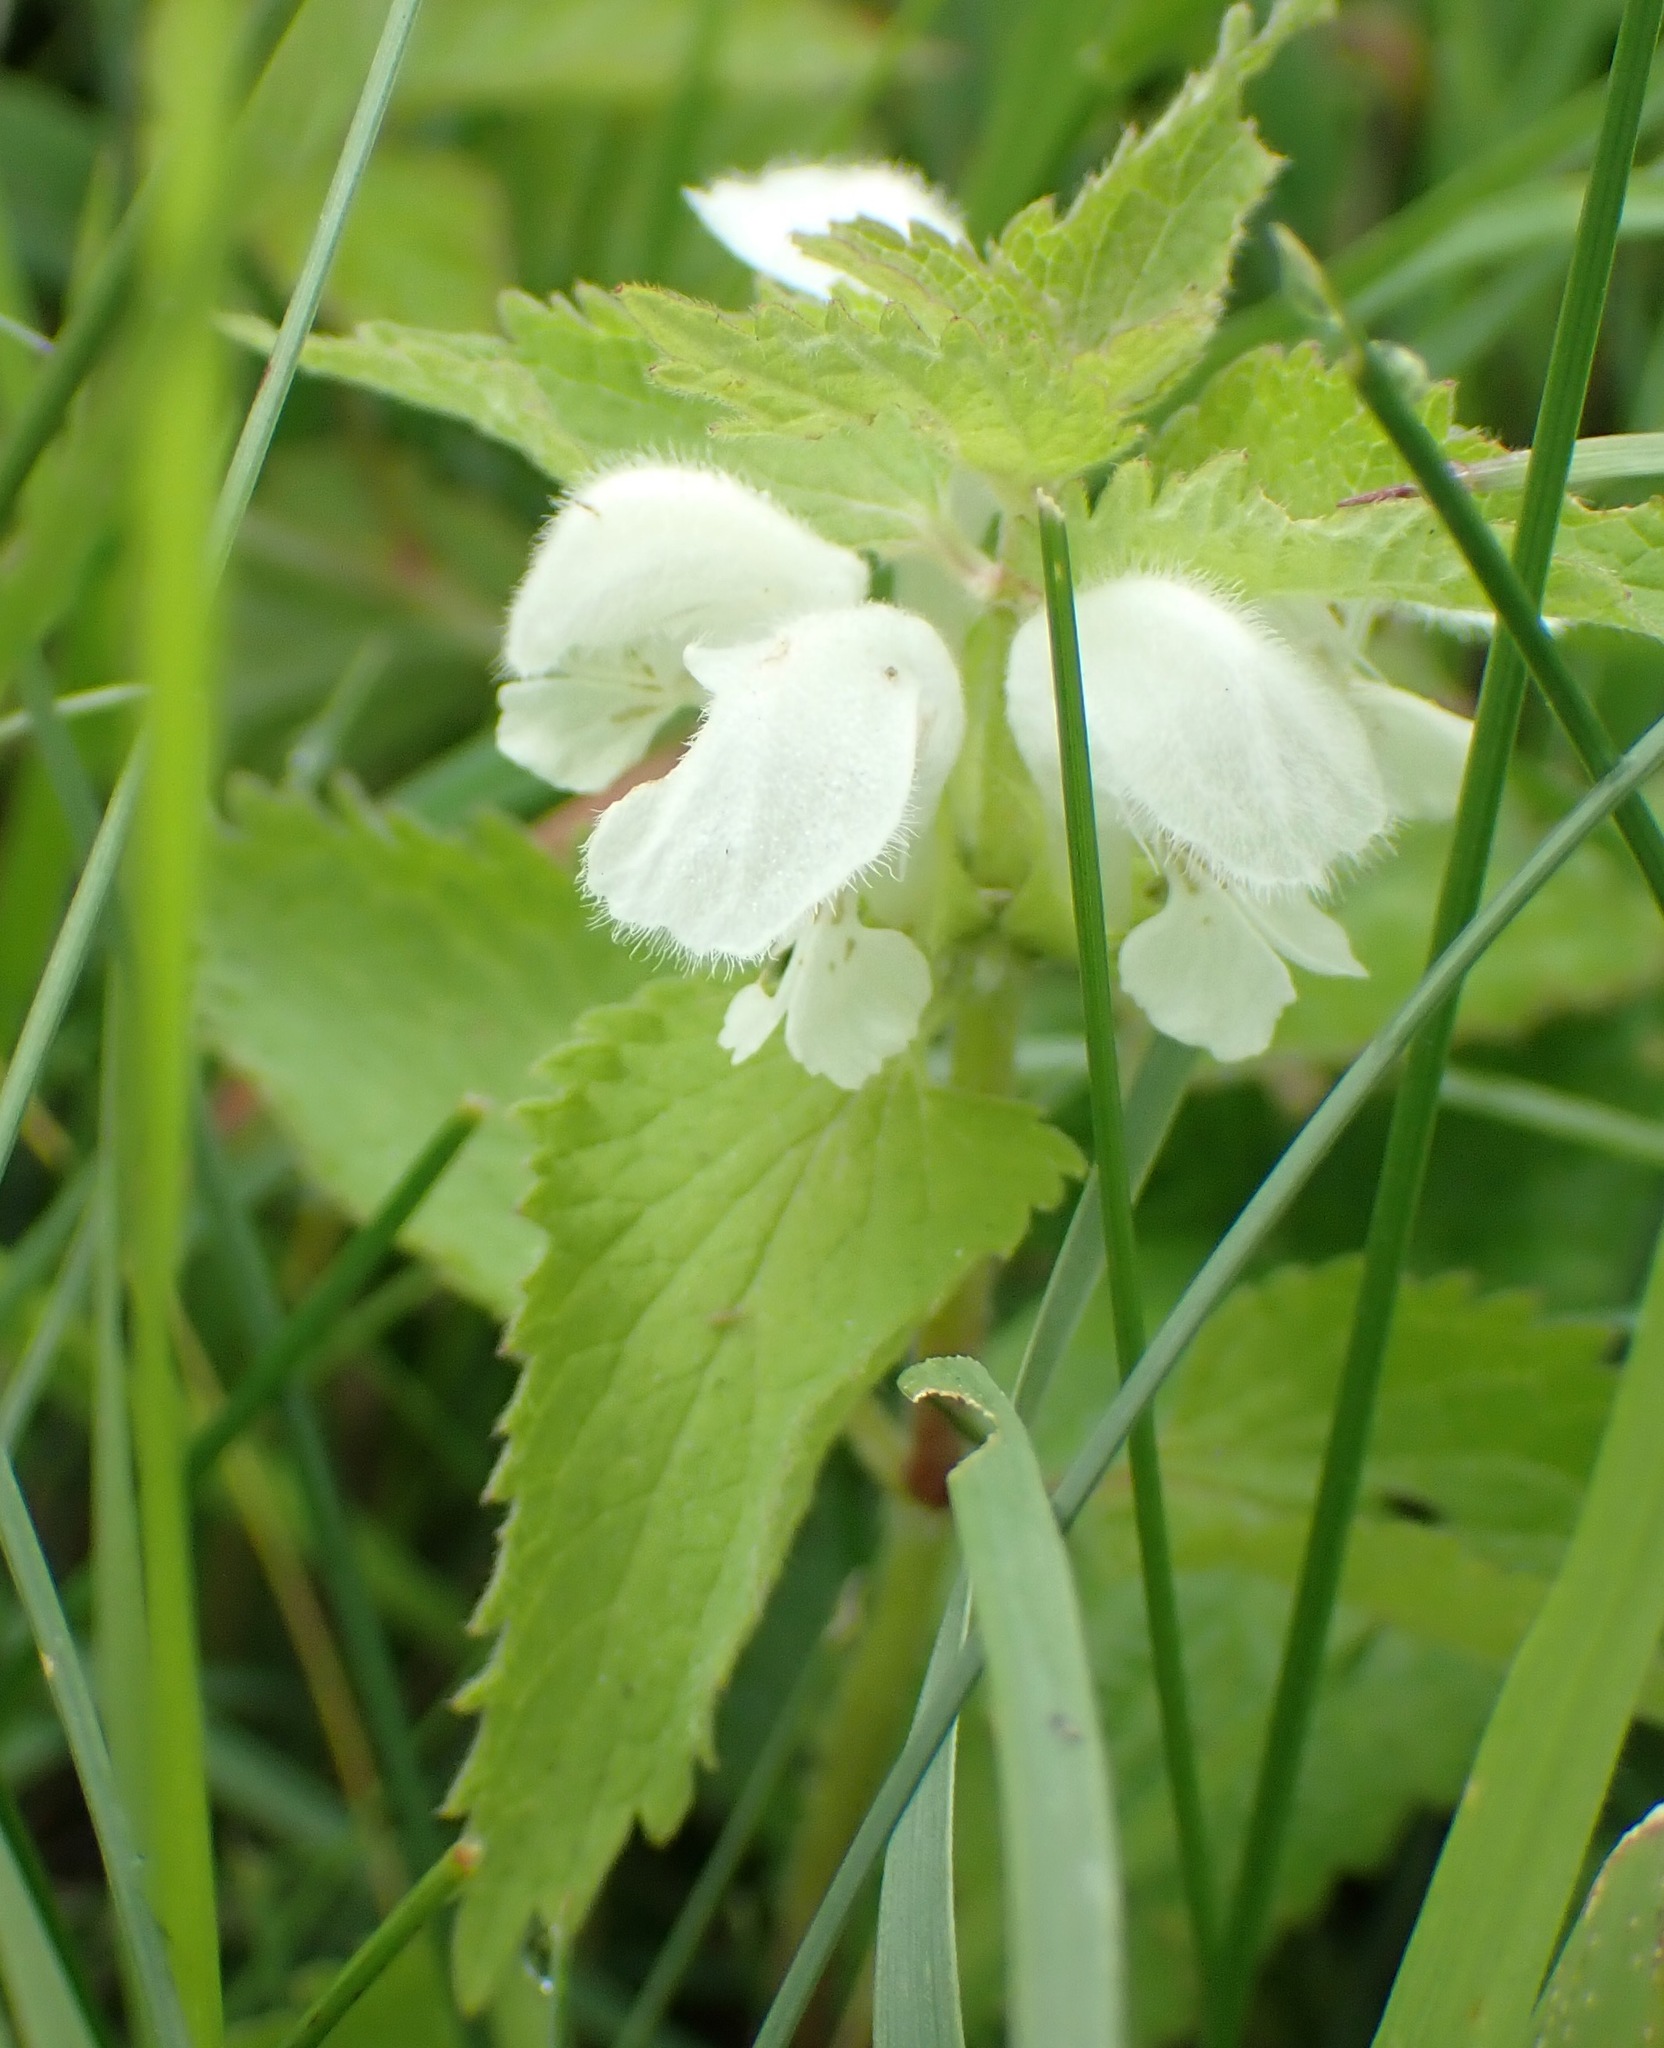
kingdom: Plantae
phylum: Tracheophyta
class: Magnoliopsida
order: Lamiales
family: Lamiaceae
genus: Lamium
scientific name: Lamium album
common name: White dead-nettle
